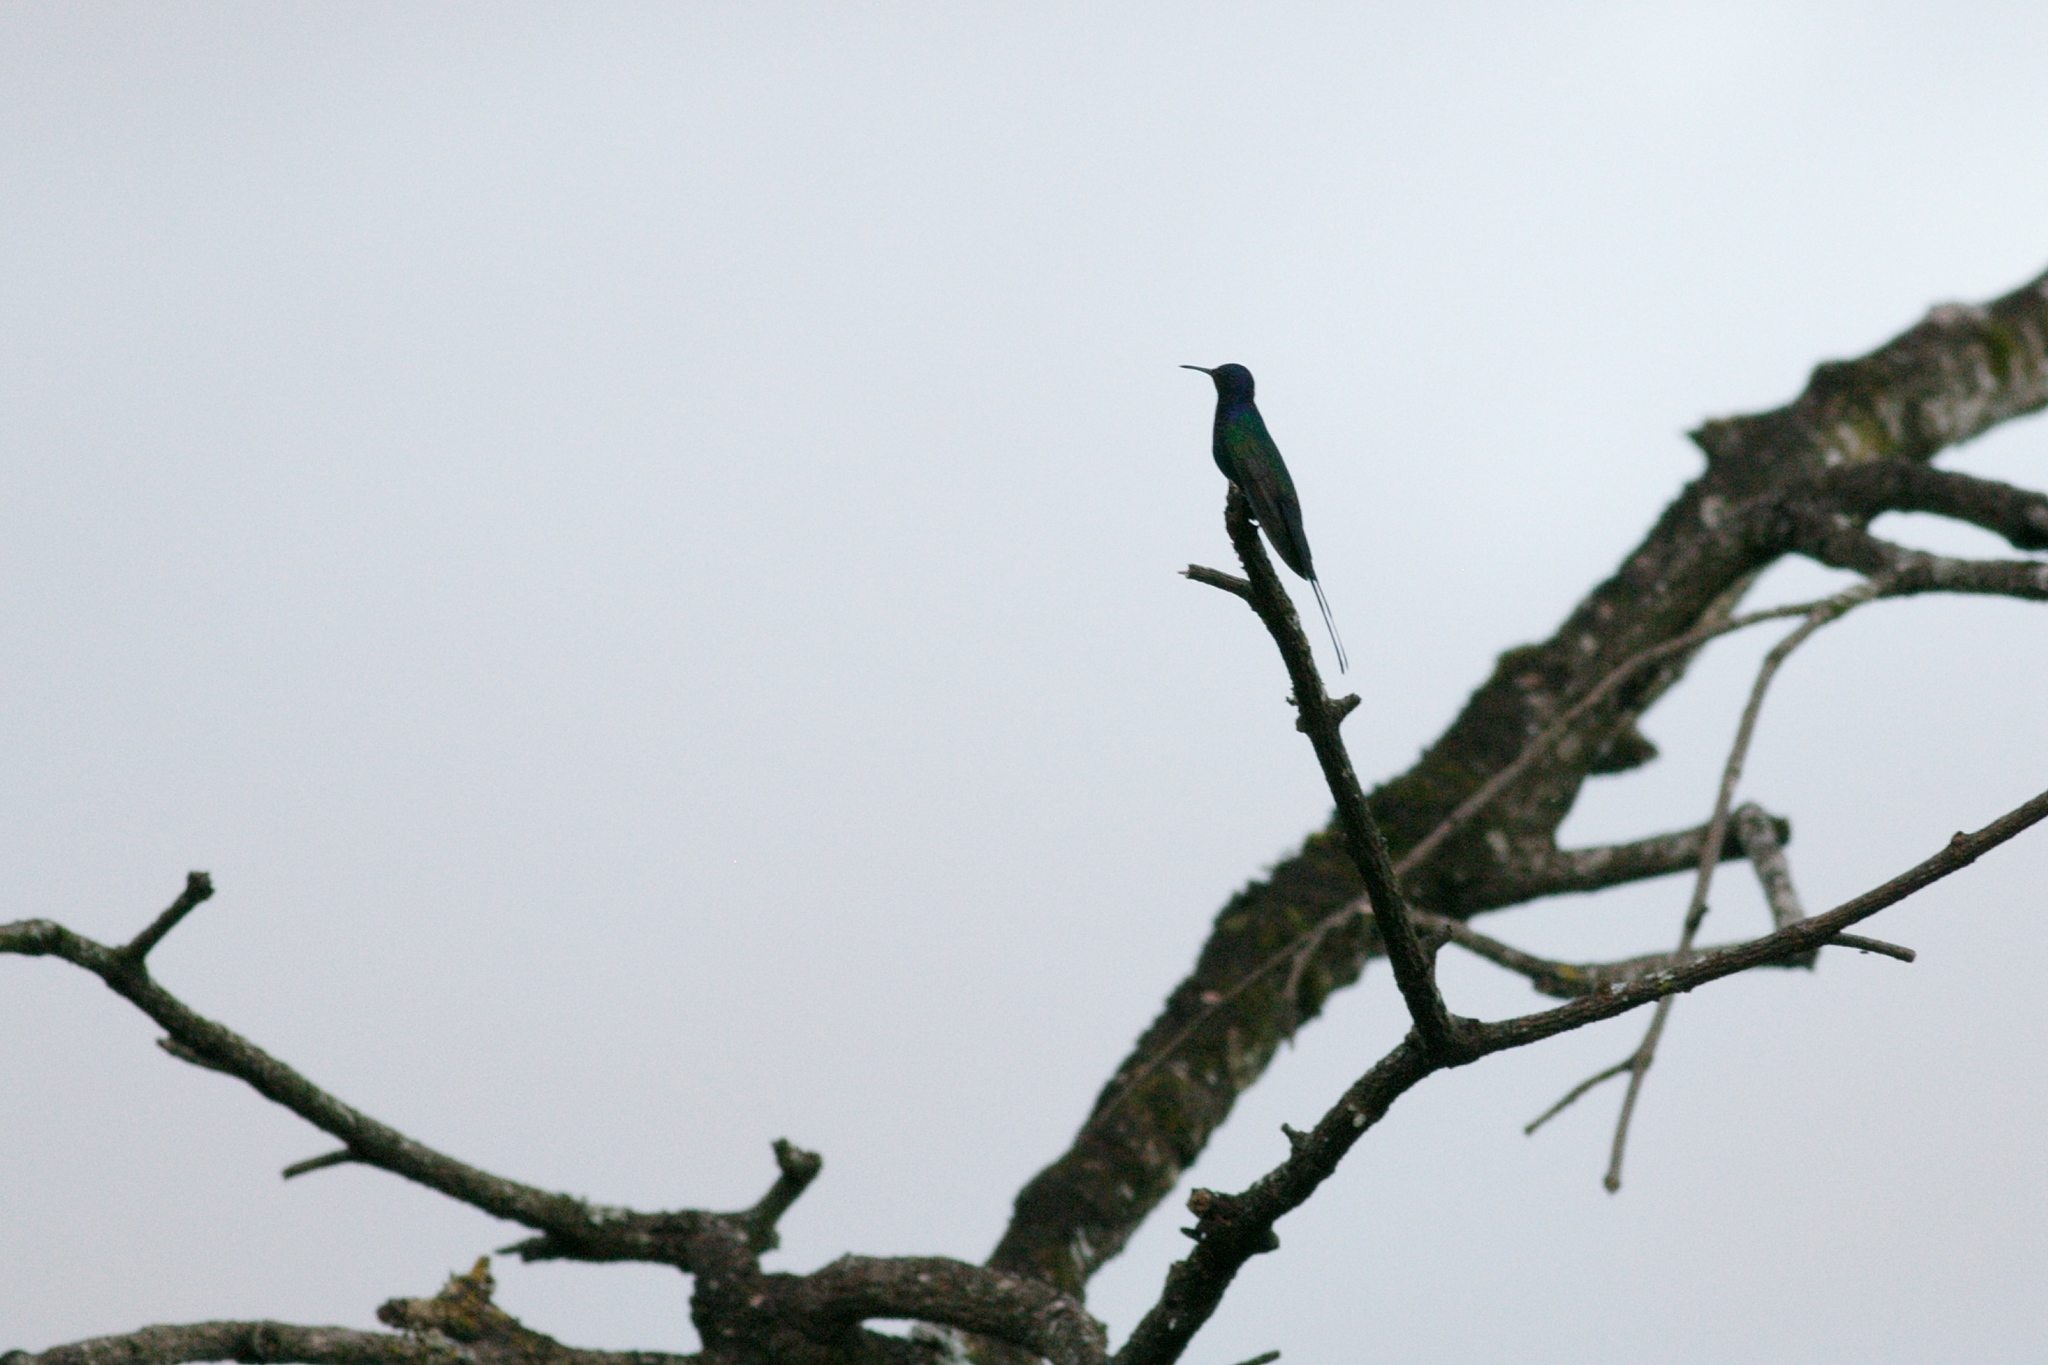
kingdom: Animalia
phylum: Chordata
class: Aves
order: Apodiformes
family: Trochilidae
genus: Eupetomena
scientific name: Eupetomena macroura
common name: Swallow-tailed hummingbird
